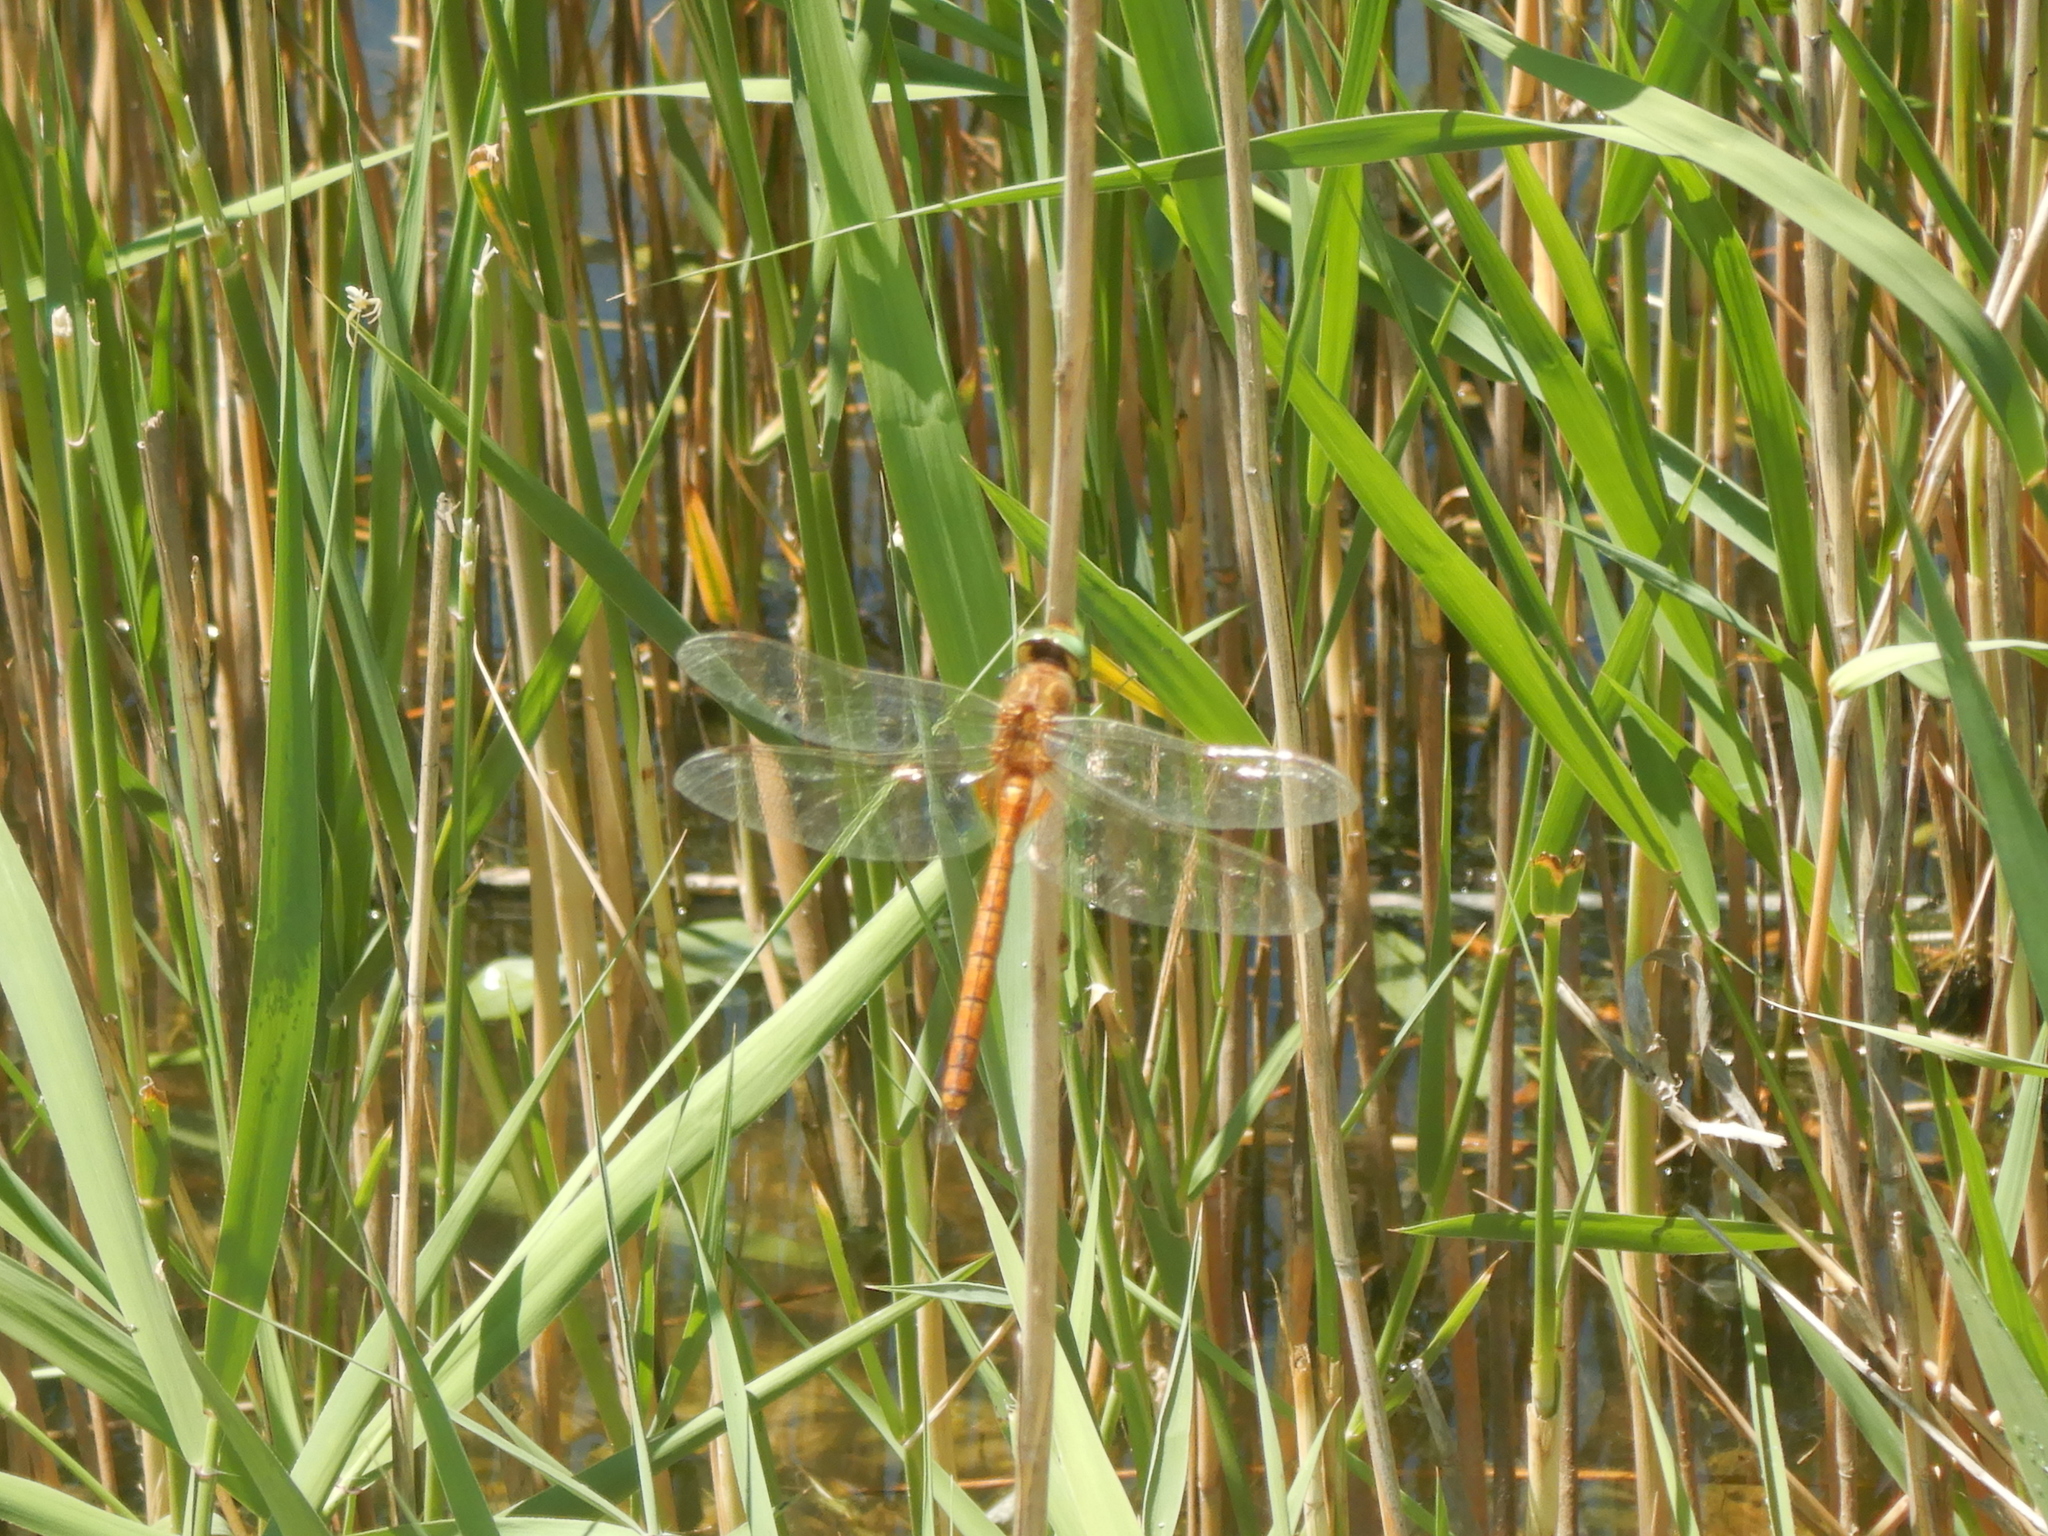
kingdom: Animalia
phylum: Arthropoda
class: Insecta
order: Odonata
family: Aeshnidae
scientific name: Aeshnidae
